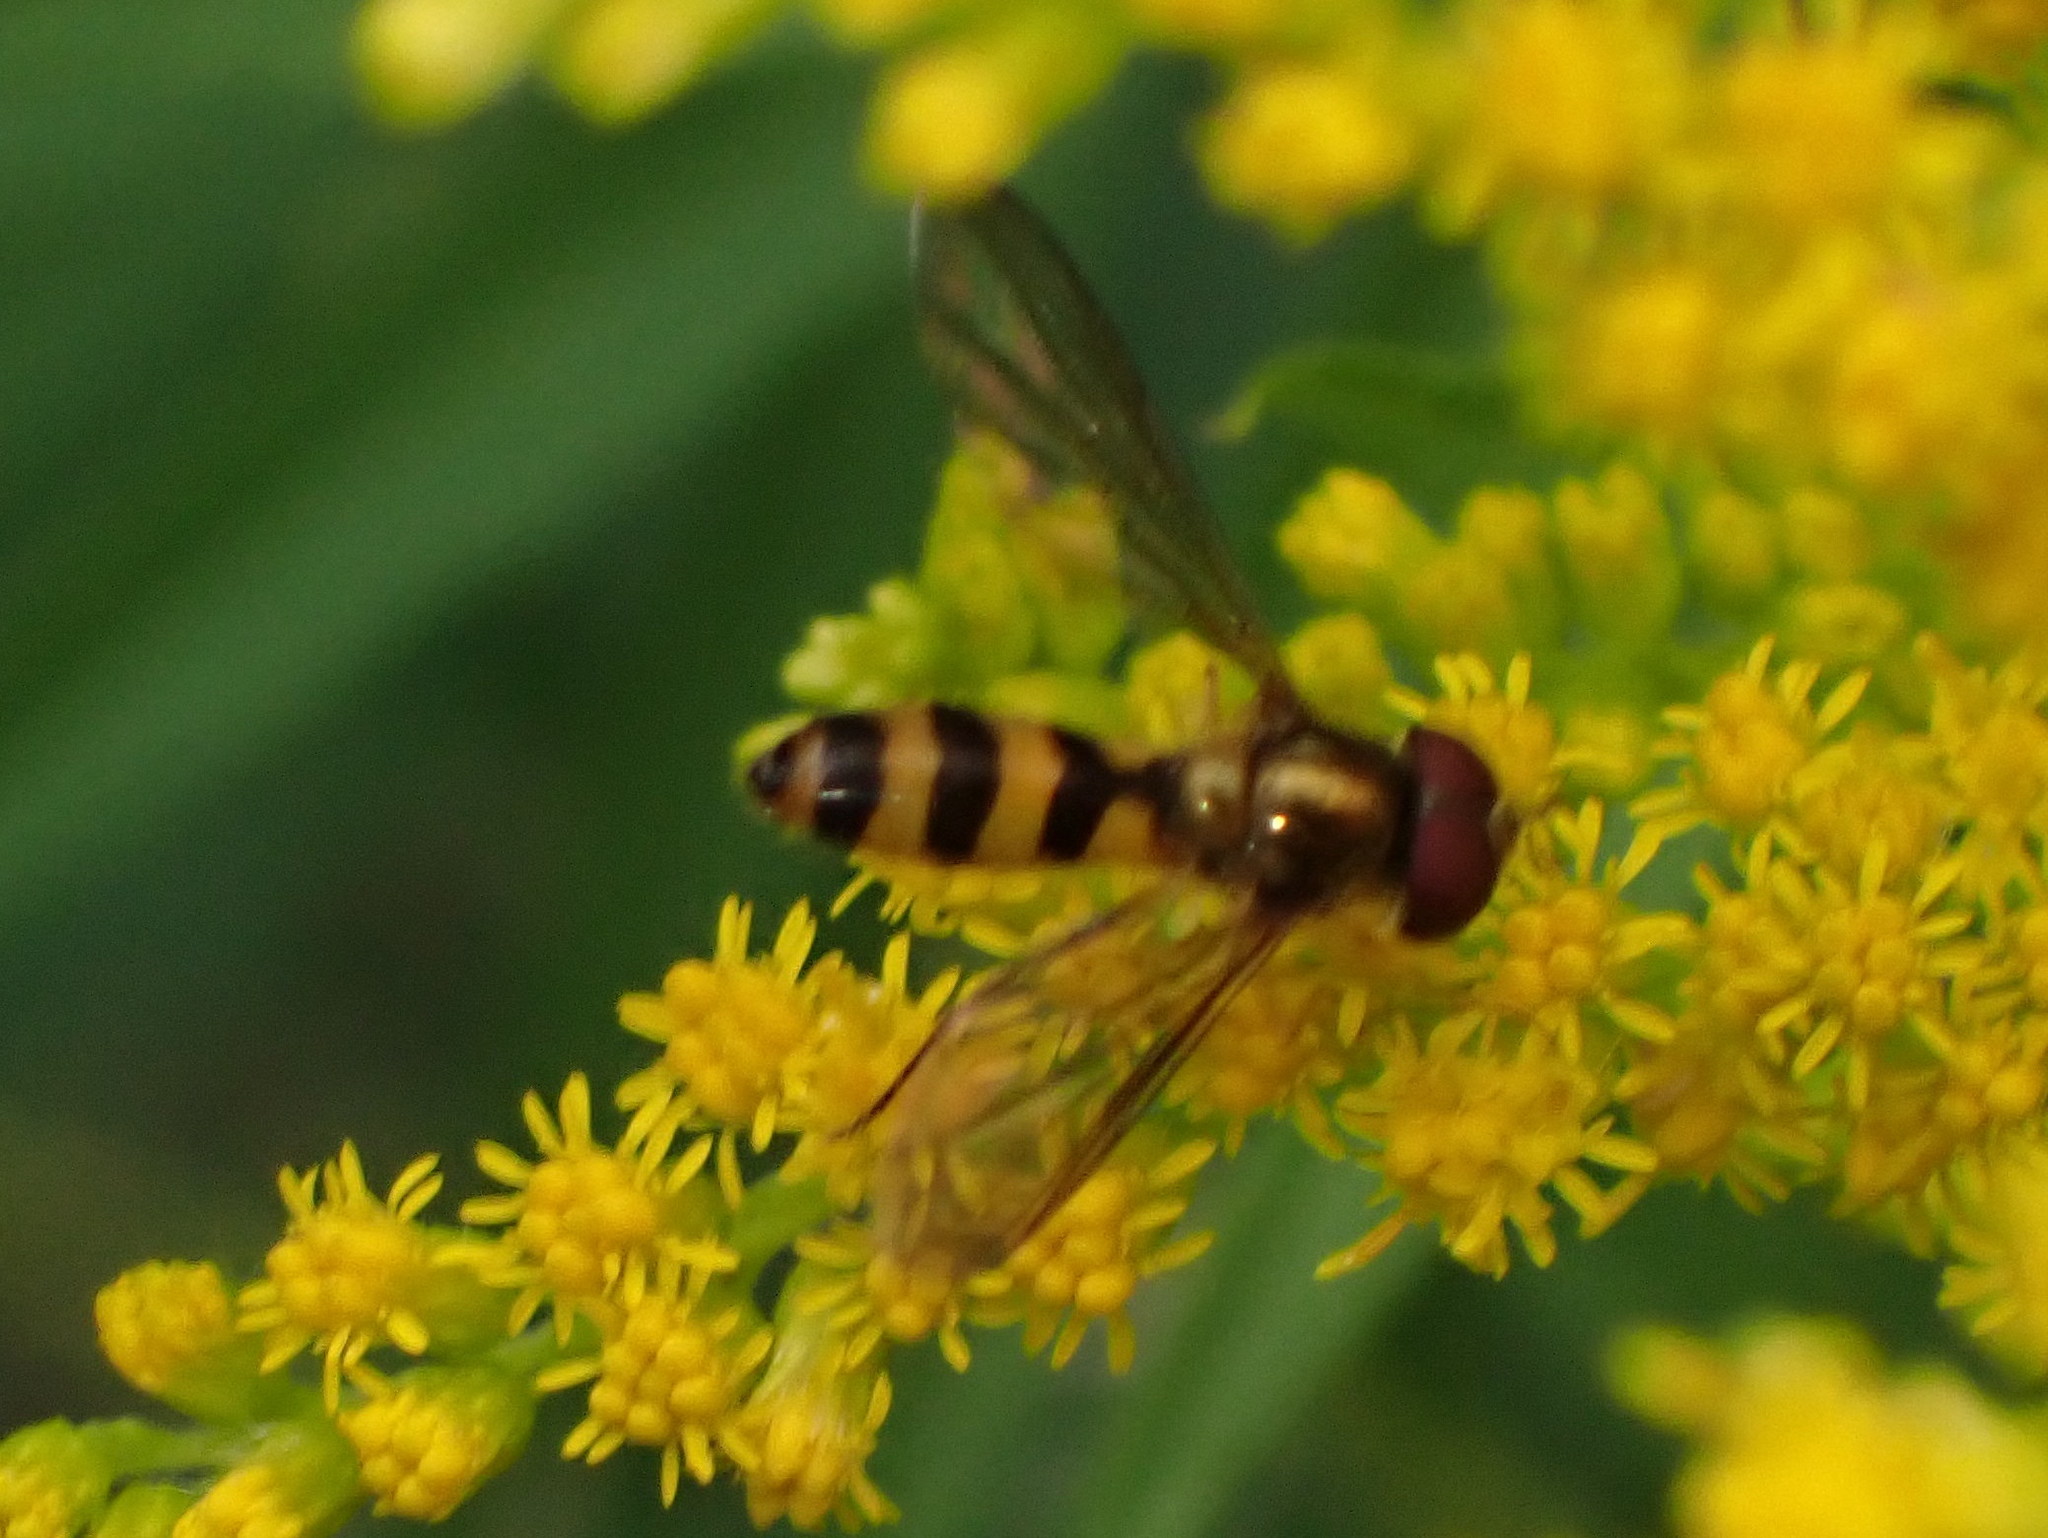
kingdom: Animalia
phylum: Arthropoda
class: Insecta
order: Diptera
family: Syrphidae
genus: Meliscaeva
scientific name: Meliscaeva cinctella
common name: American thintail fly
